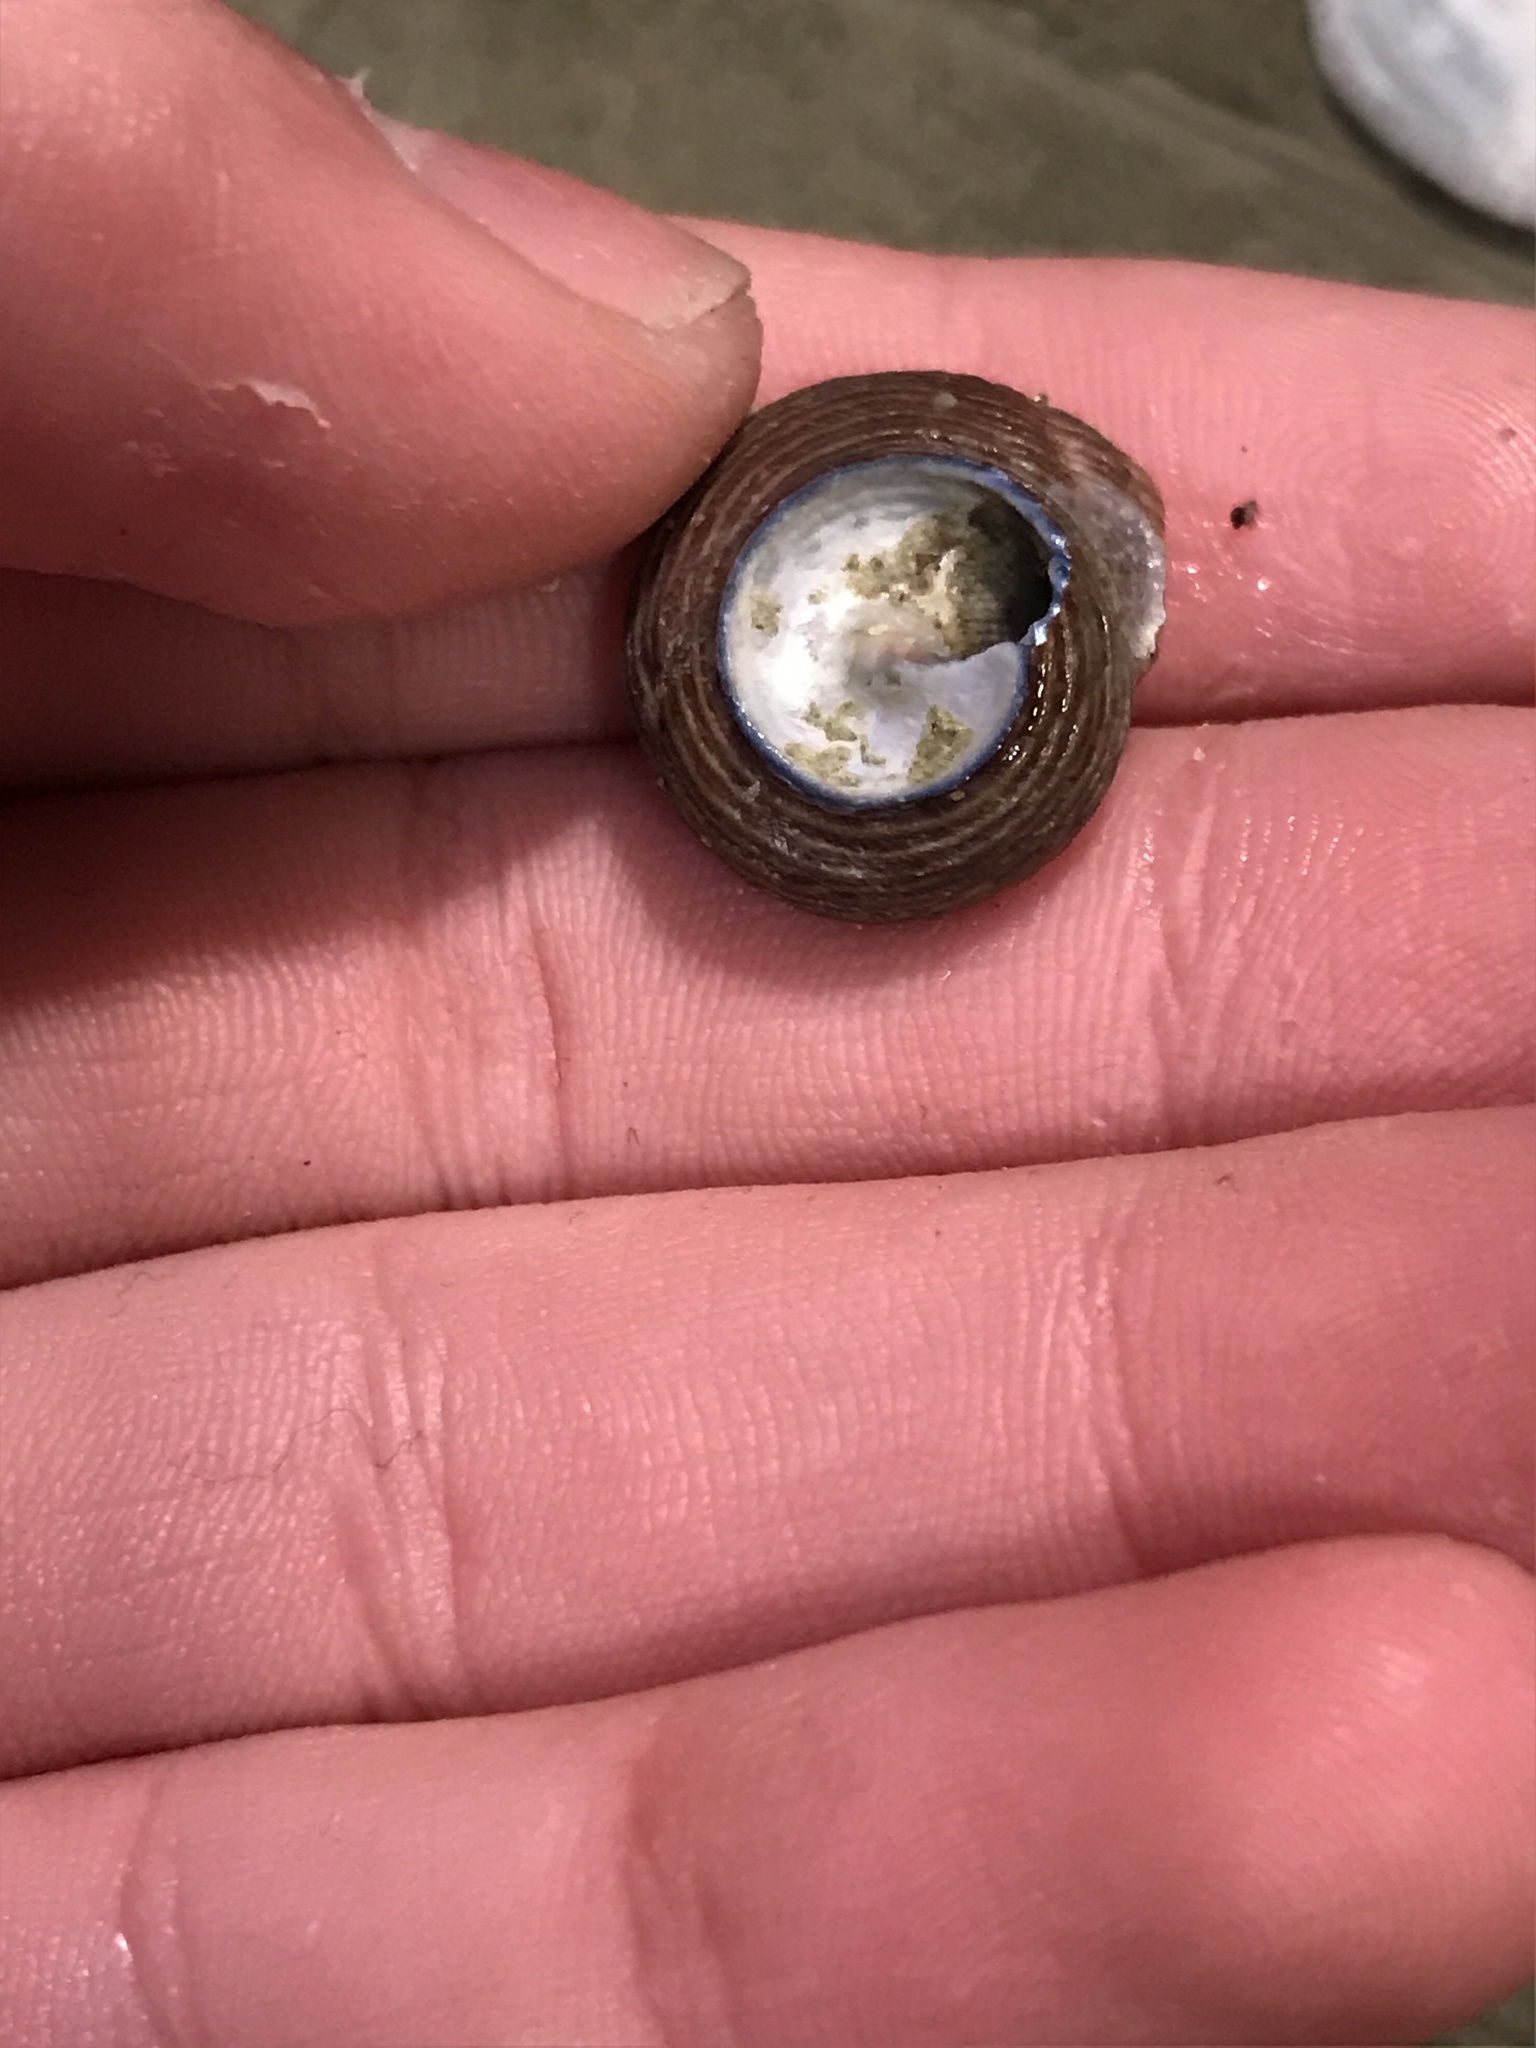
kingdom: Animalia
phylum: Mollusca
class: Gastropoda
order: Trochida
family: Calliostomatidae
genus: Calliostoma
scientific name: Calliostoma ligatum
